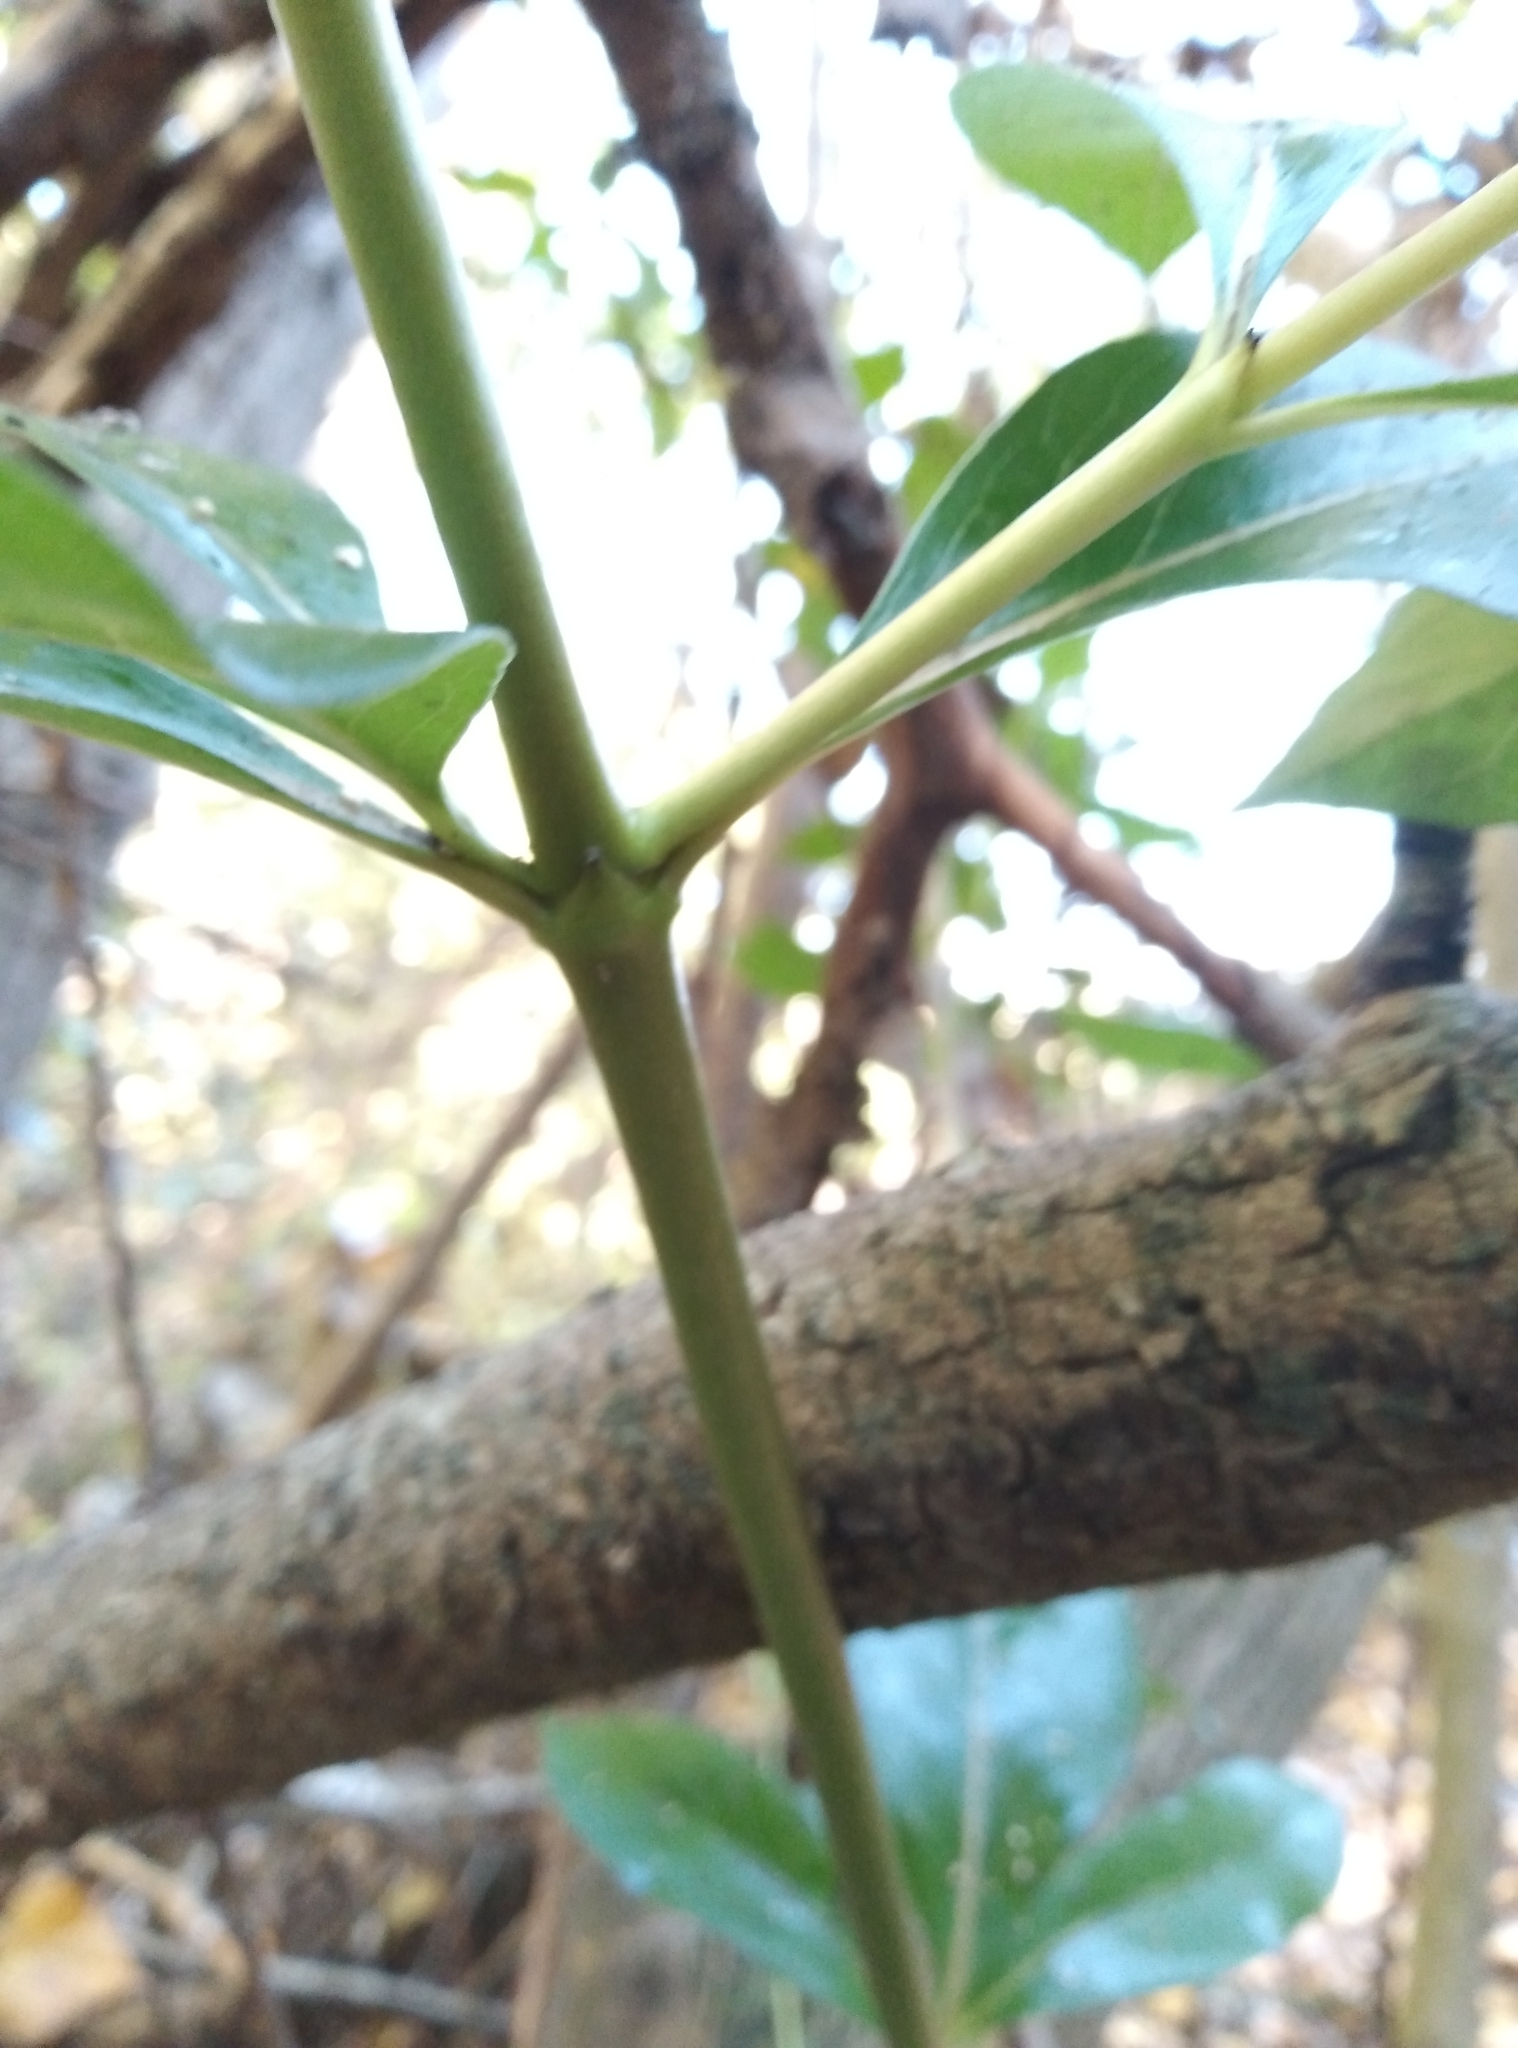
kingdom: Plantae
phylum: Tracheophyta
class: Magnoliopsida
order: Gentianales
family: Rubiaceae
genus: Coprosma
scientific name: Coprosma robusta
